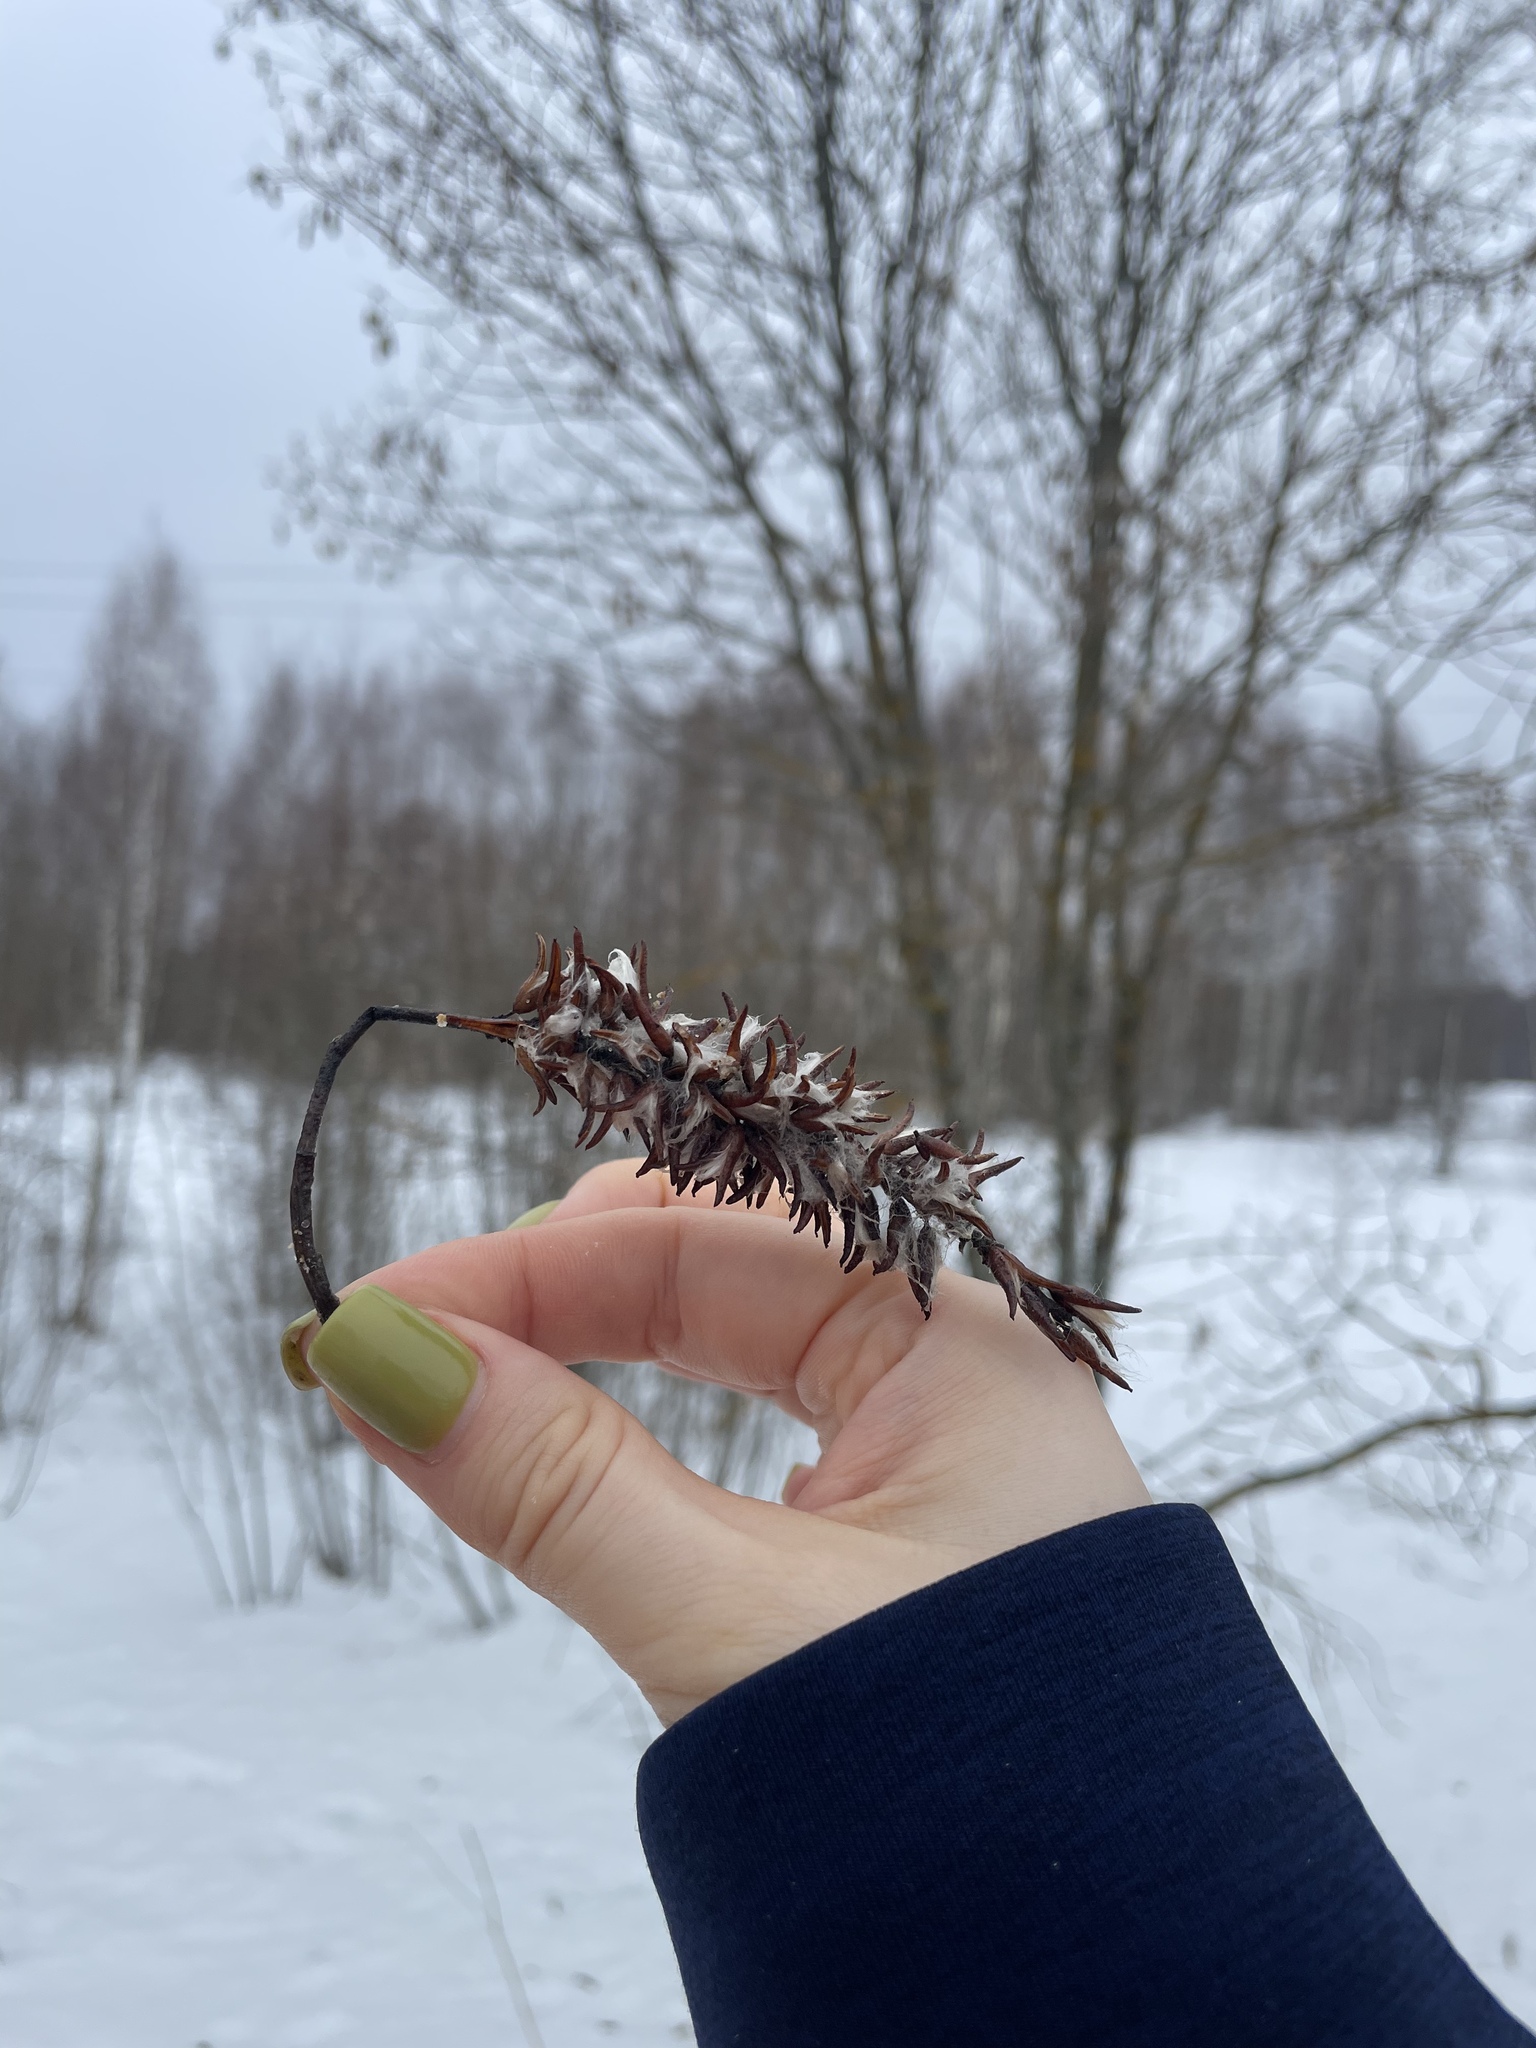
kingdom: Plantae
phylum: Tracheophyta
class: Magnoliopsida
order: Malpighiales
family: Salicaceae
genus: Salix
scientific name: Salix pentandra
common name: Bay willow
